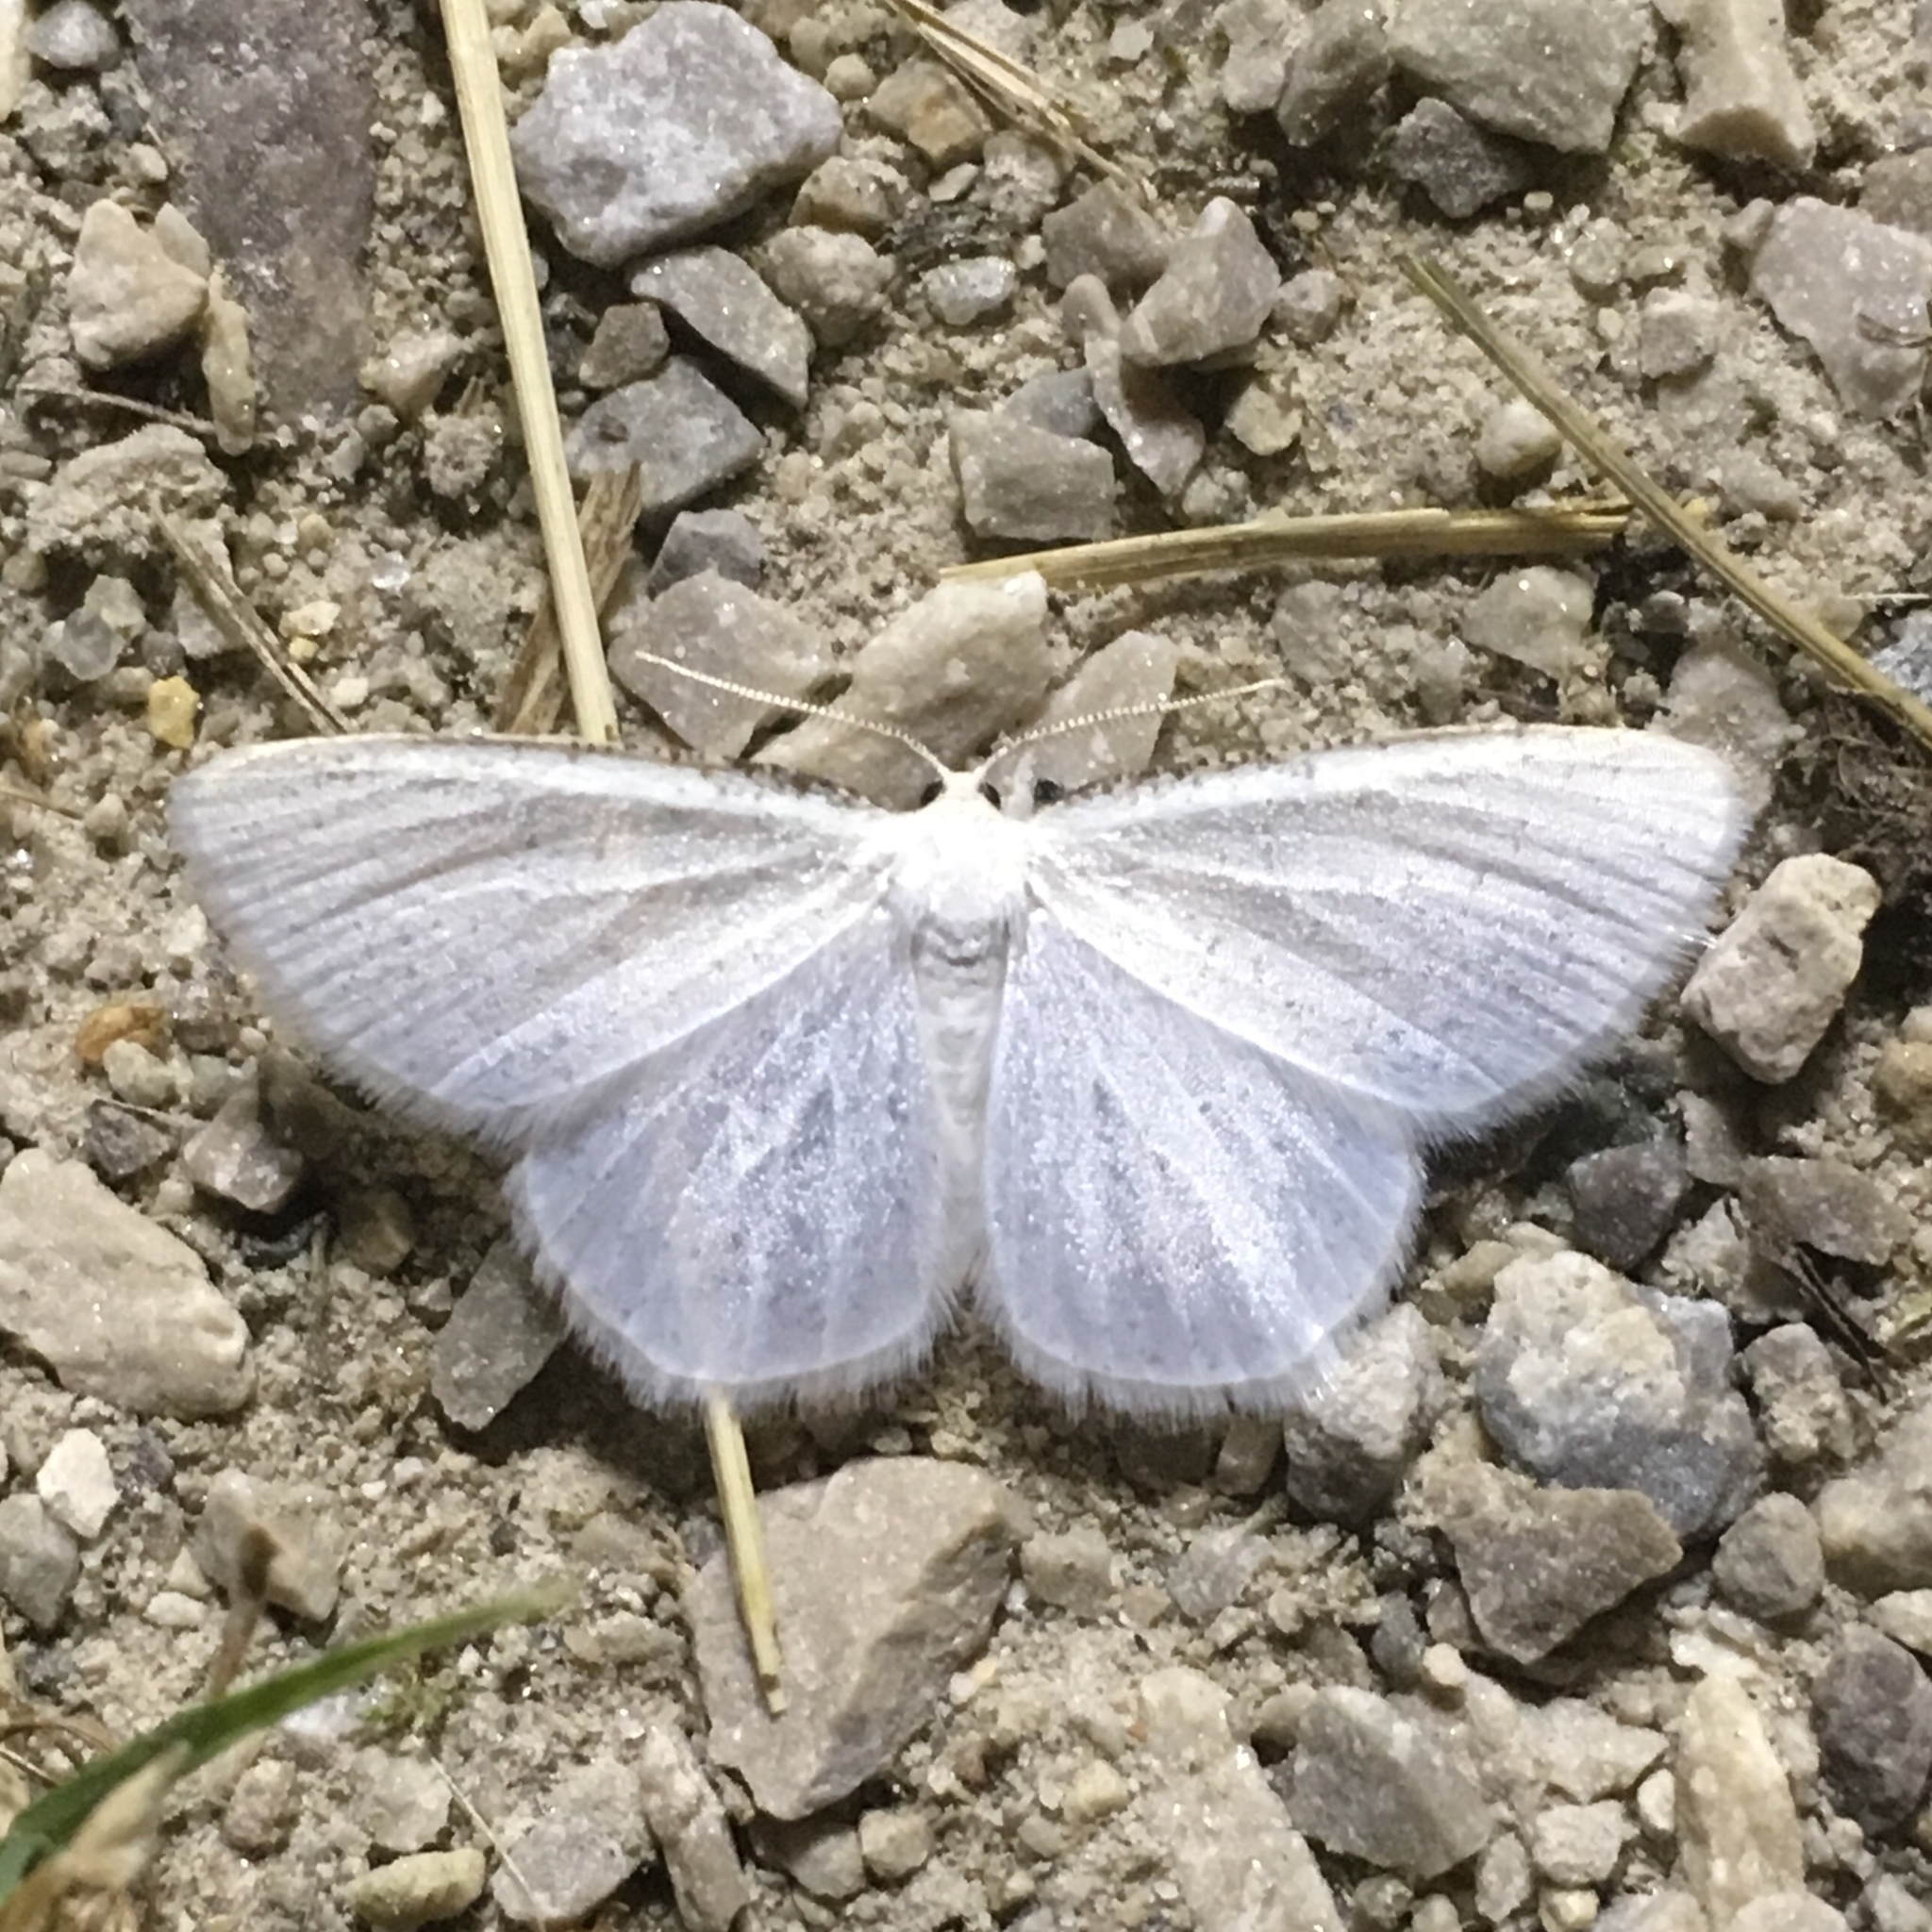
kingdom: Animalia
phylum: Arthropoda
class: Insecta
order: Lepidoptera
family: Geometridae
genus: Protitame
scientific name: Protitame virginalis
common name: Virgin moth
